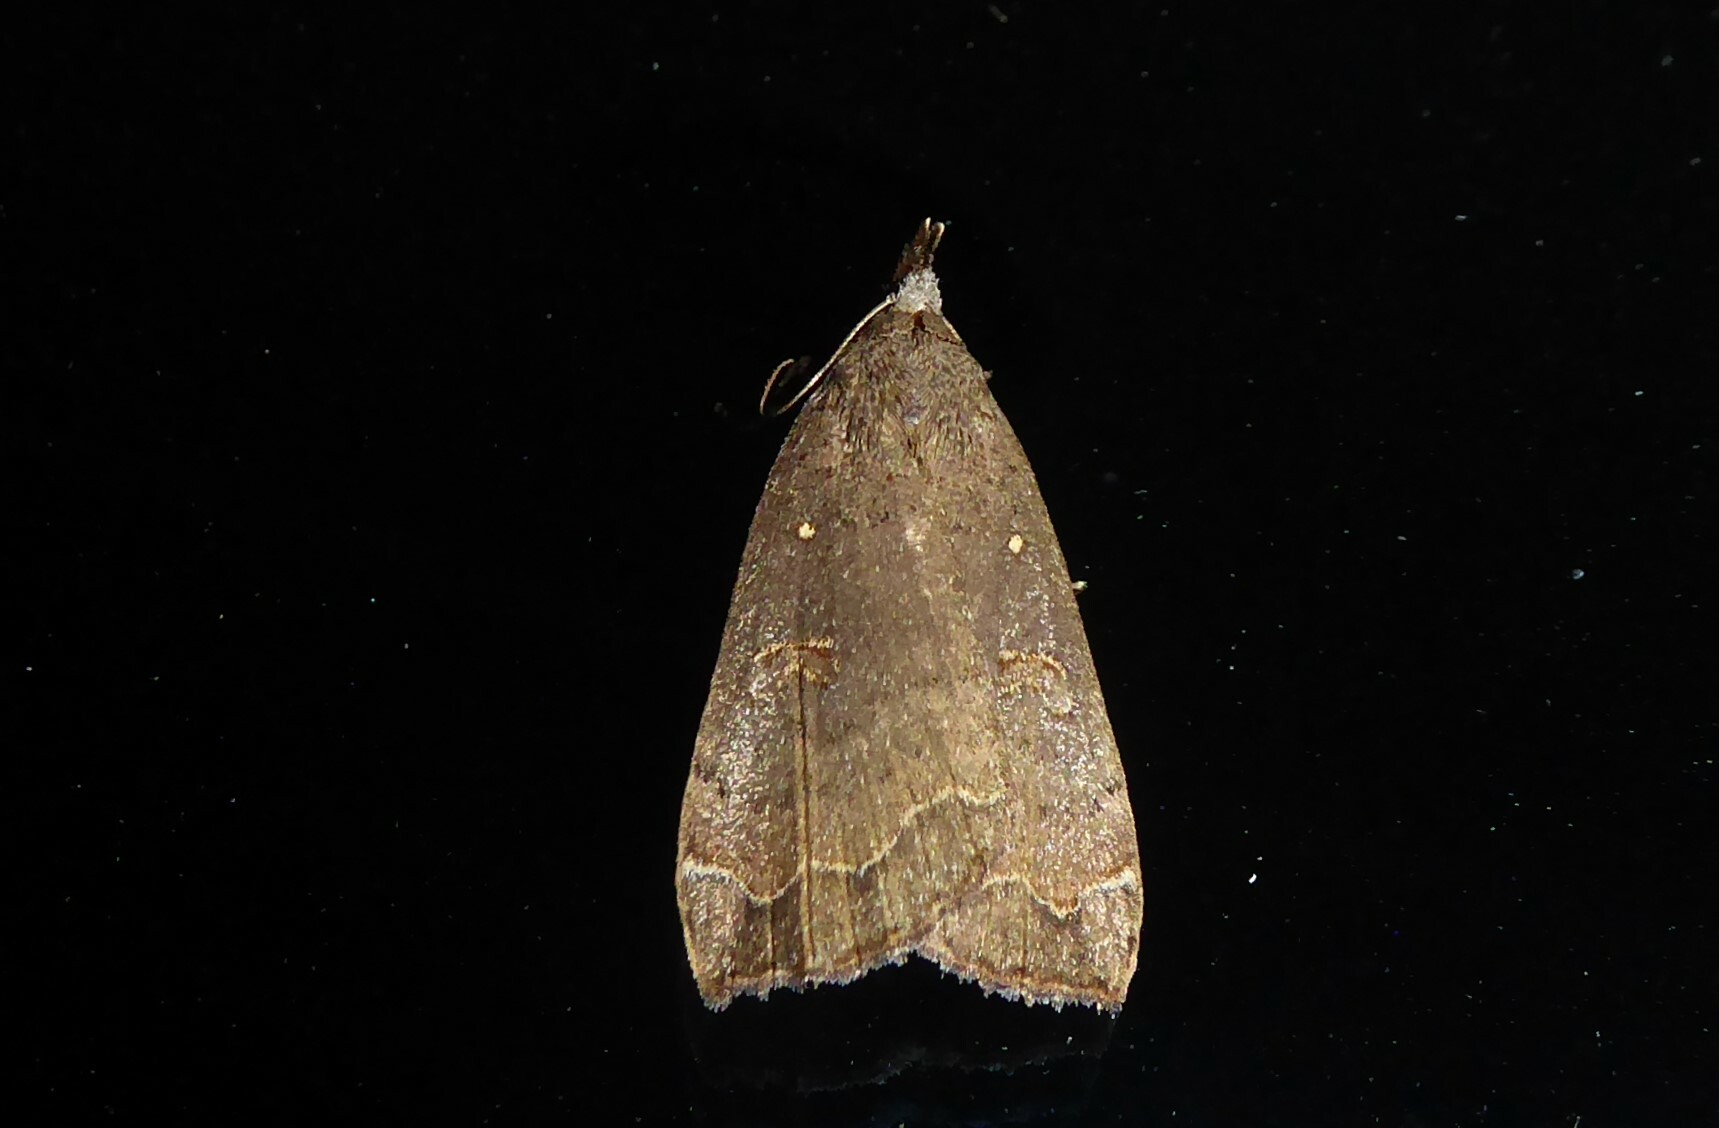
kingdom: Animalia
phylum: Arthropoda
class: Insecta
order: Lepidoptera
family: Erebidae
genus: Rhapsa
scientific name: Rhapsa scotosialis
